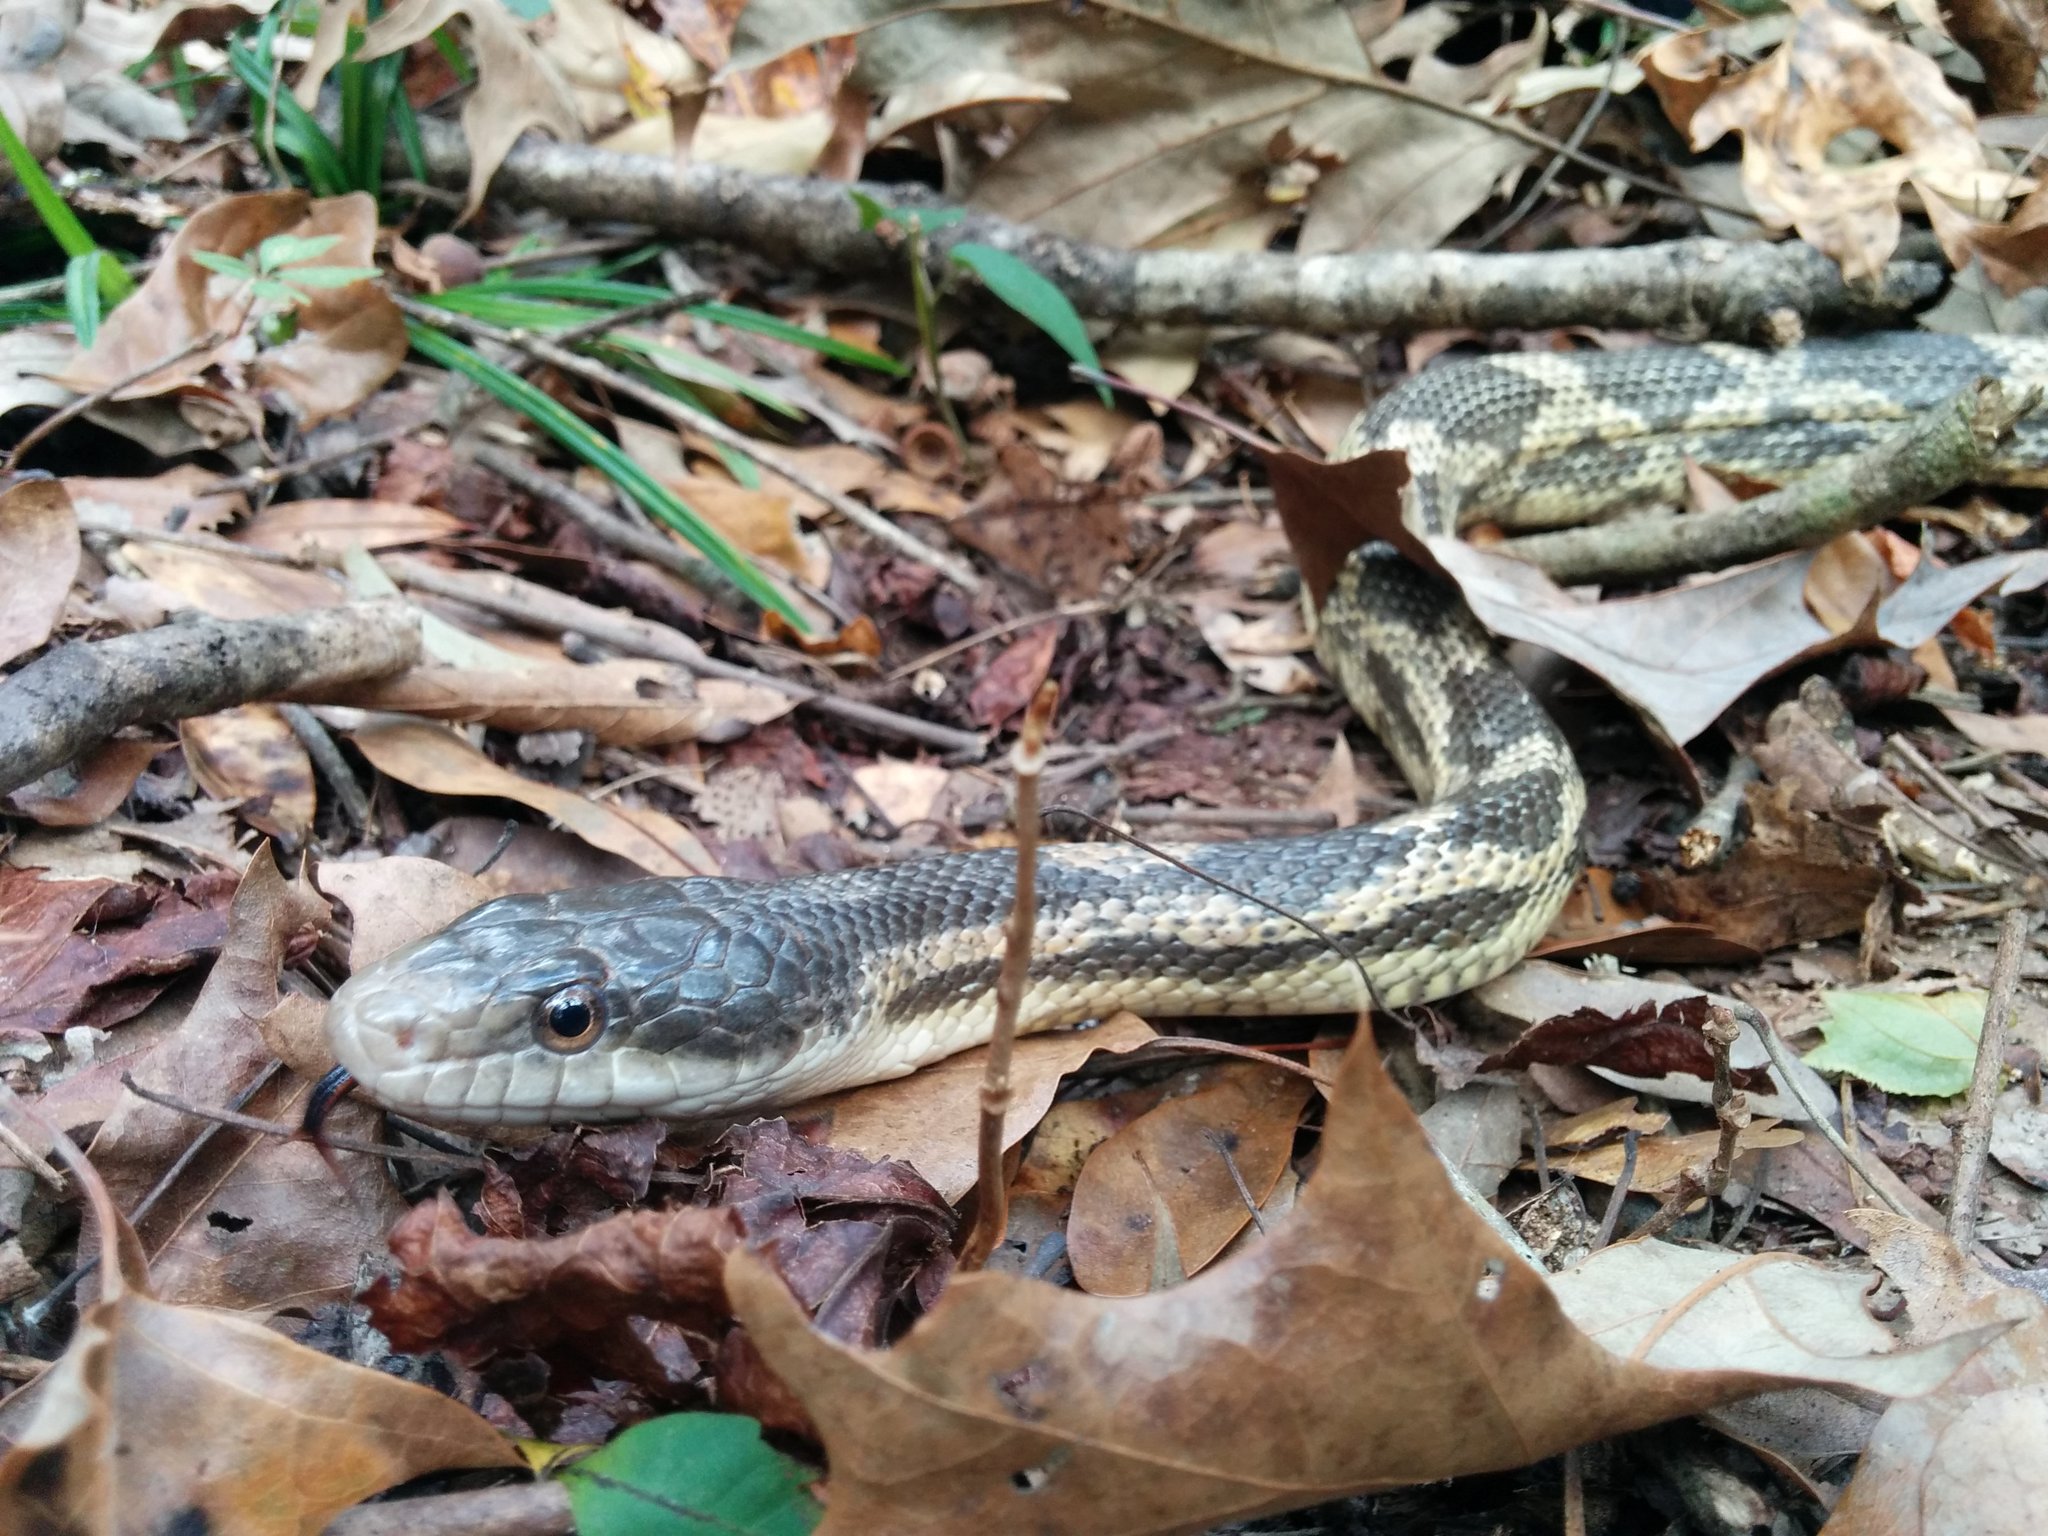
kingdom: Animalia
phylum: Chordata
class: Squamata
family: Colubridae
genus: Pantherophis
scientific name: Pantherophis spiloides
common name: Gray rat snake
